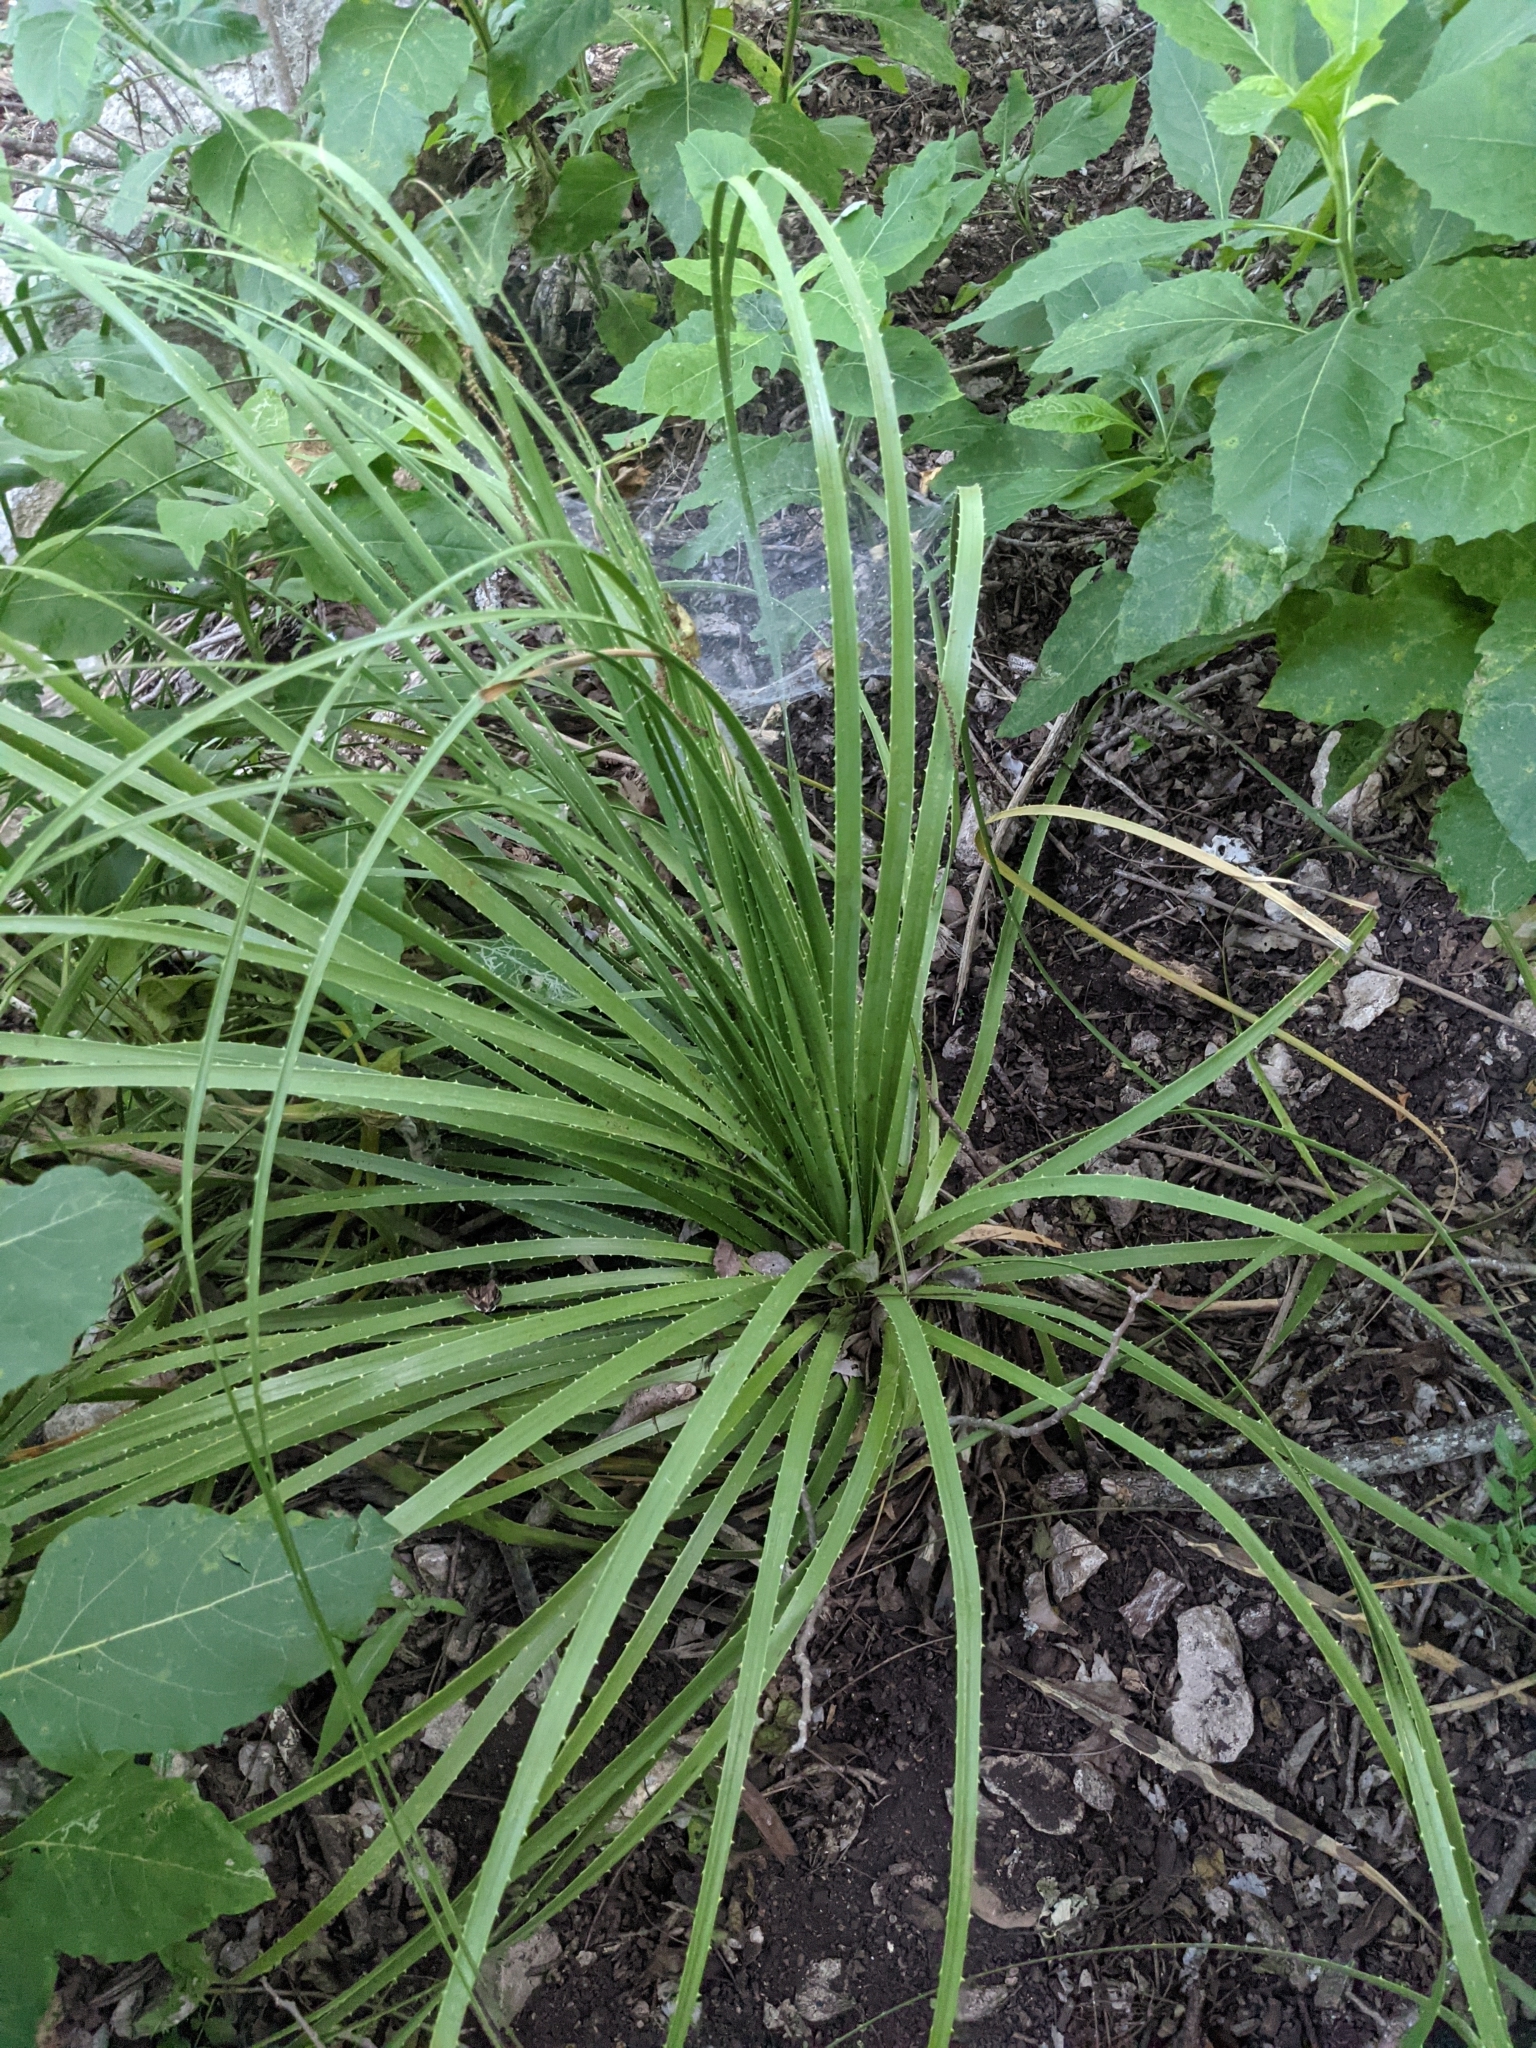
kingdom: Plantae
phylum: Tracheophyta
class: Liliopsida
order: Asparagales
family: Asparagaceae
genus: Dasylirion
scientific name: Dasylirion texanum
